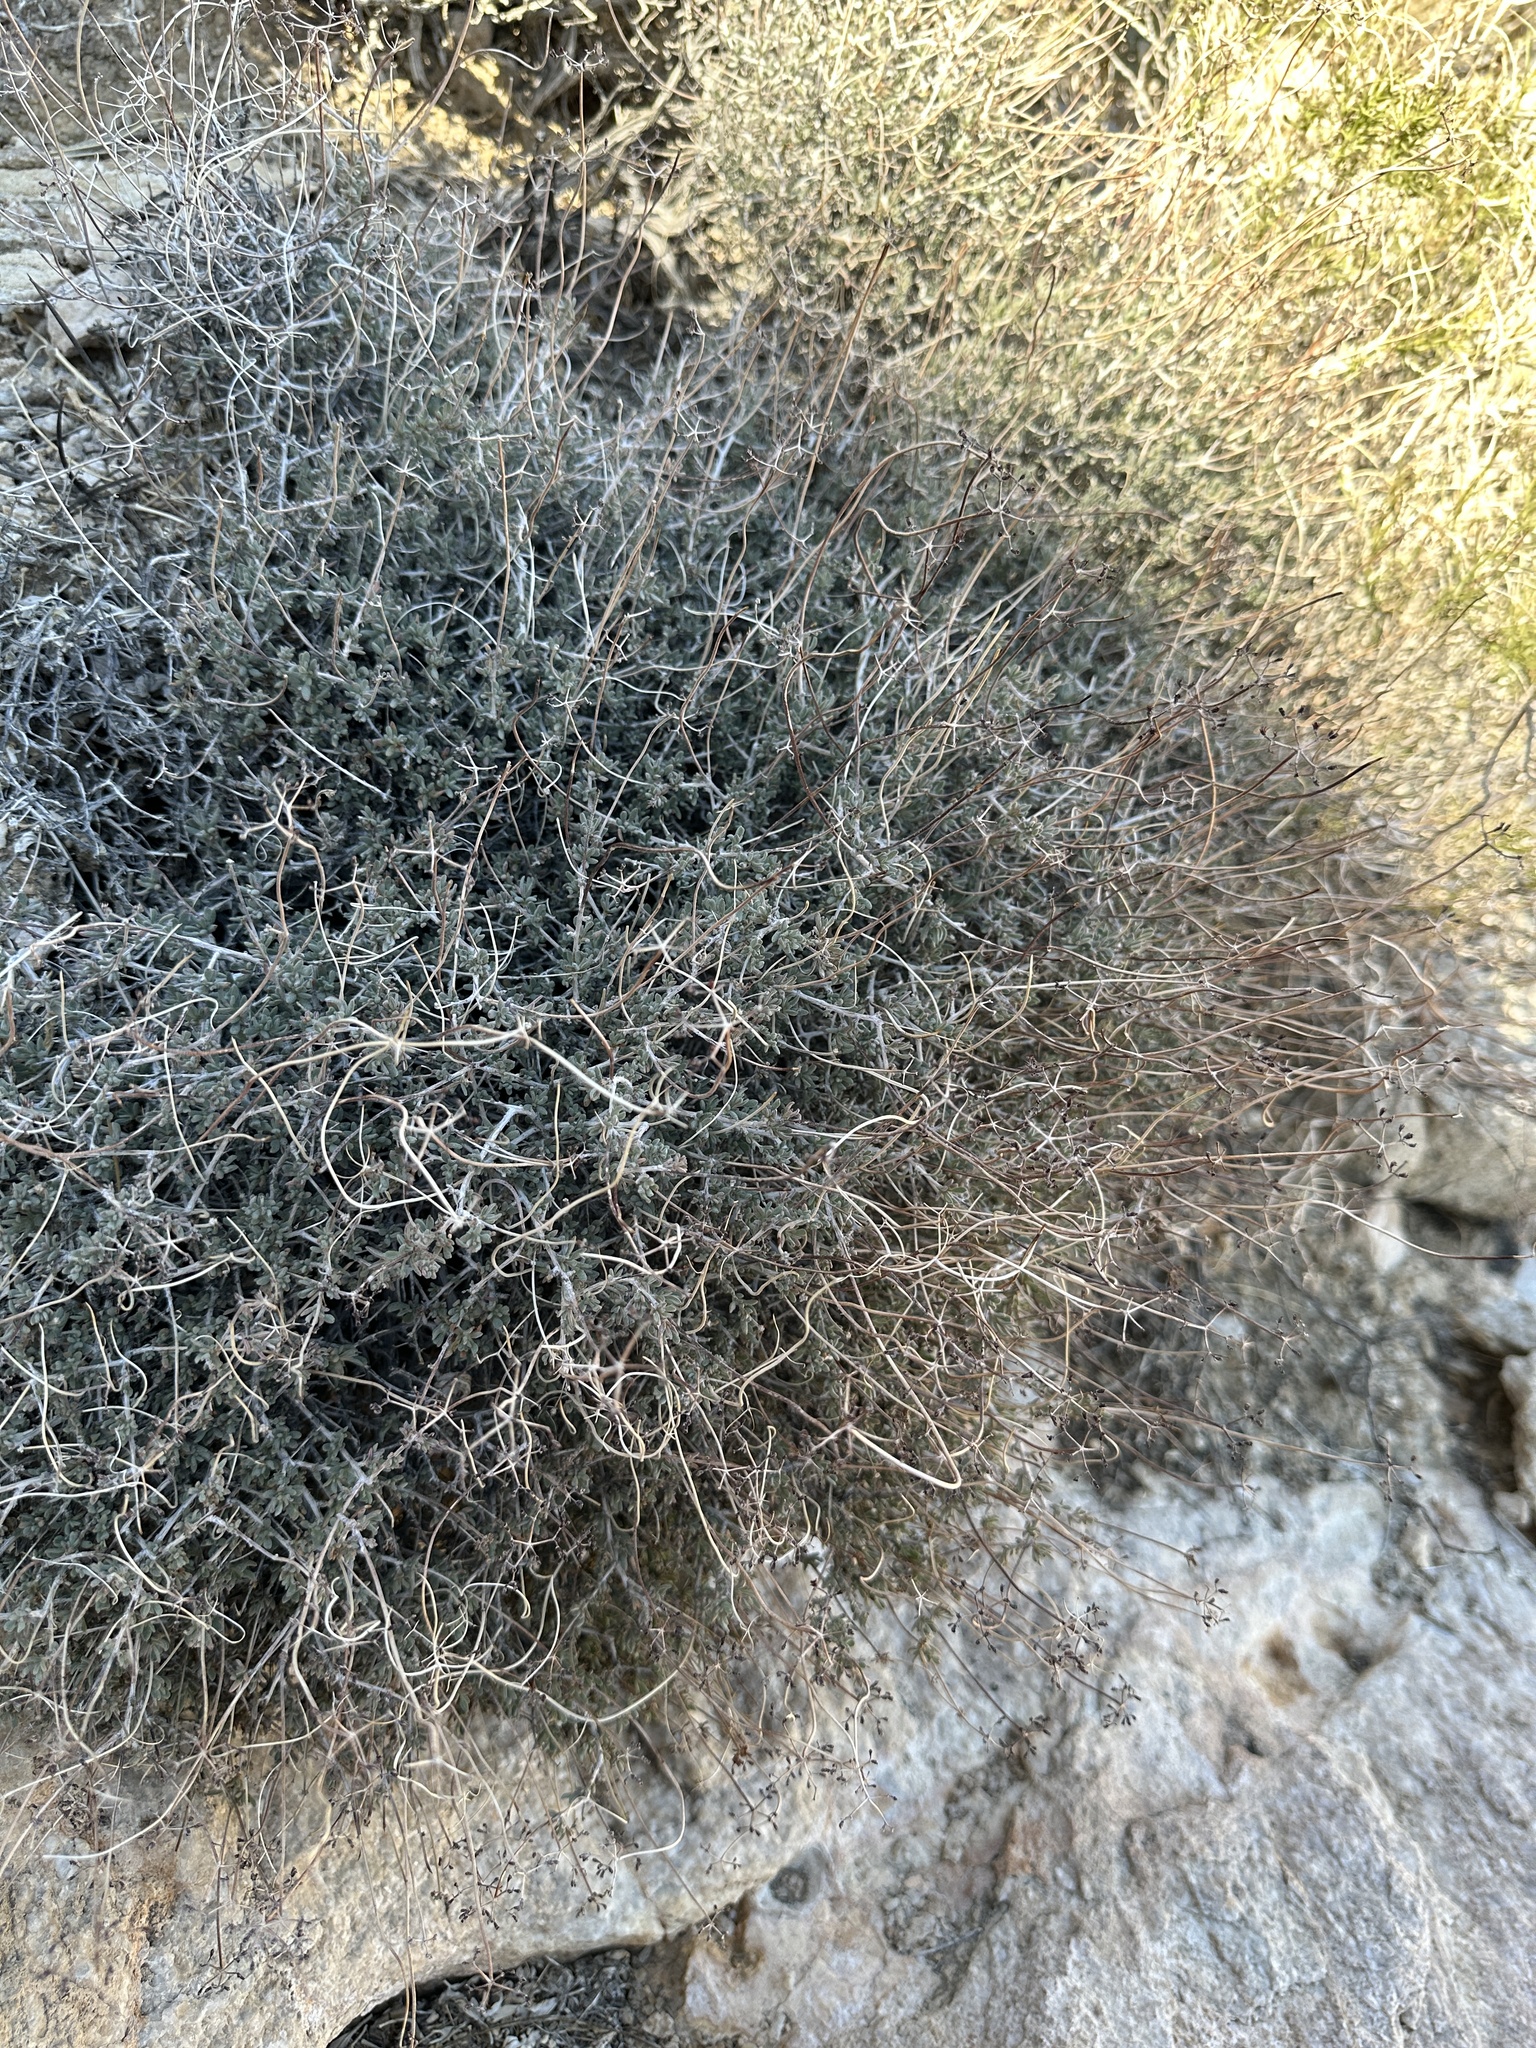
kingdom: Plantae
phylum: Tracheophyta
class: Magnoliopsida
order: Caryophyllales
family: Polygonaceae
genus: Eriogonum
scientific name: Eriogonum fasciculatum
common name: California wild buckwheat
